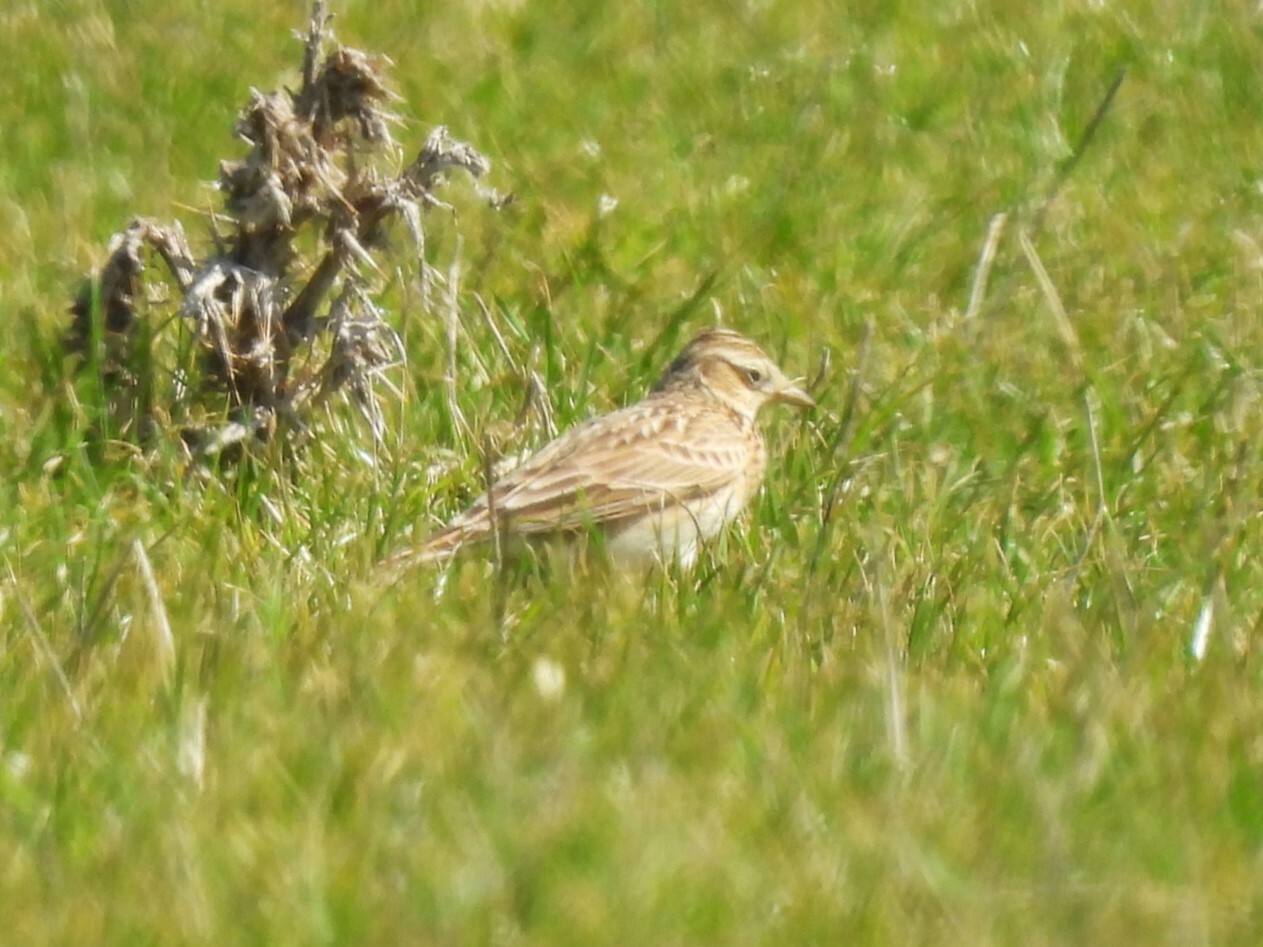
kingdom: Animalia
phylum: Chordata
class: Aves
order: Passeriformes
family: Alaudidae
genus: Alauda
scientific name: Alauda arvensis
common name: Eurasian skylark
